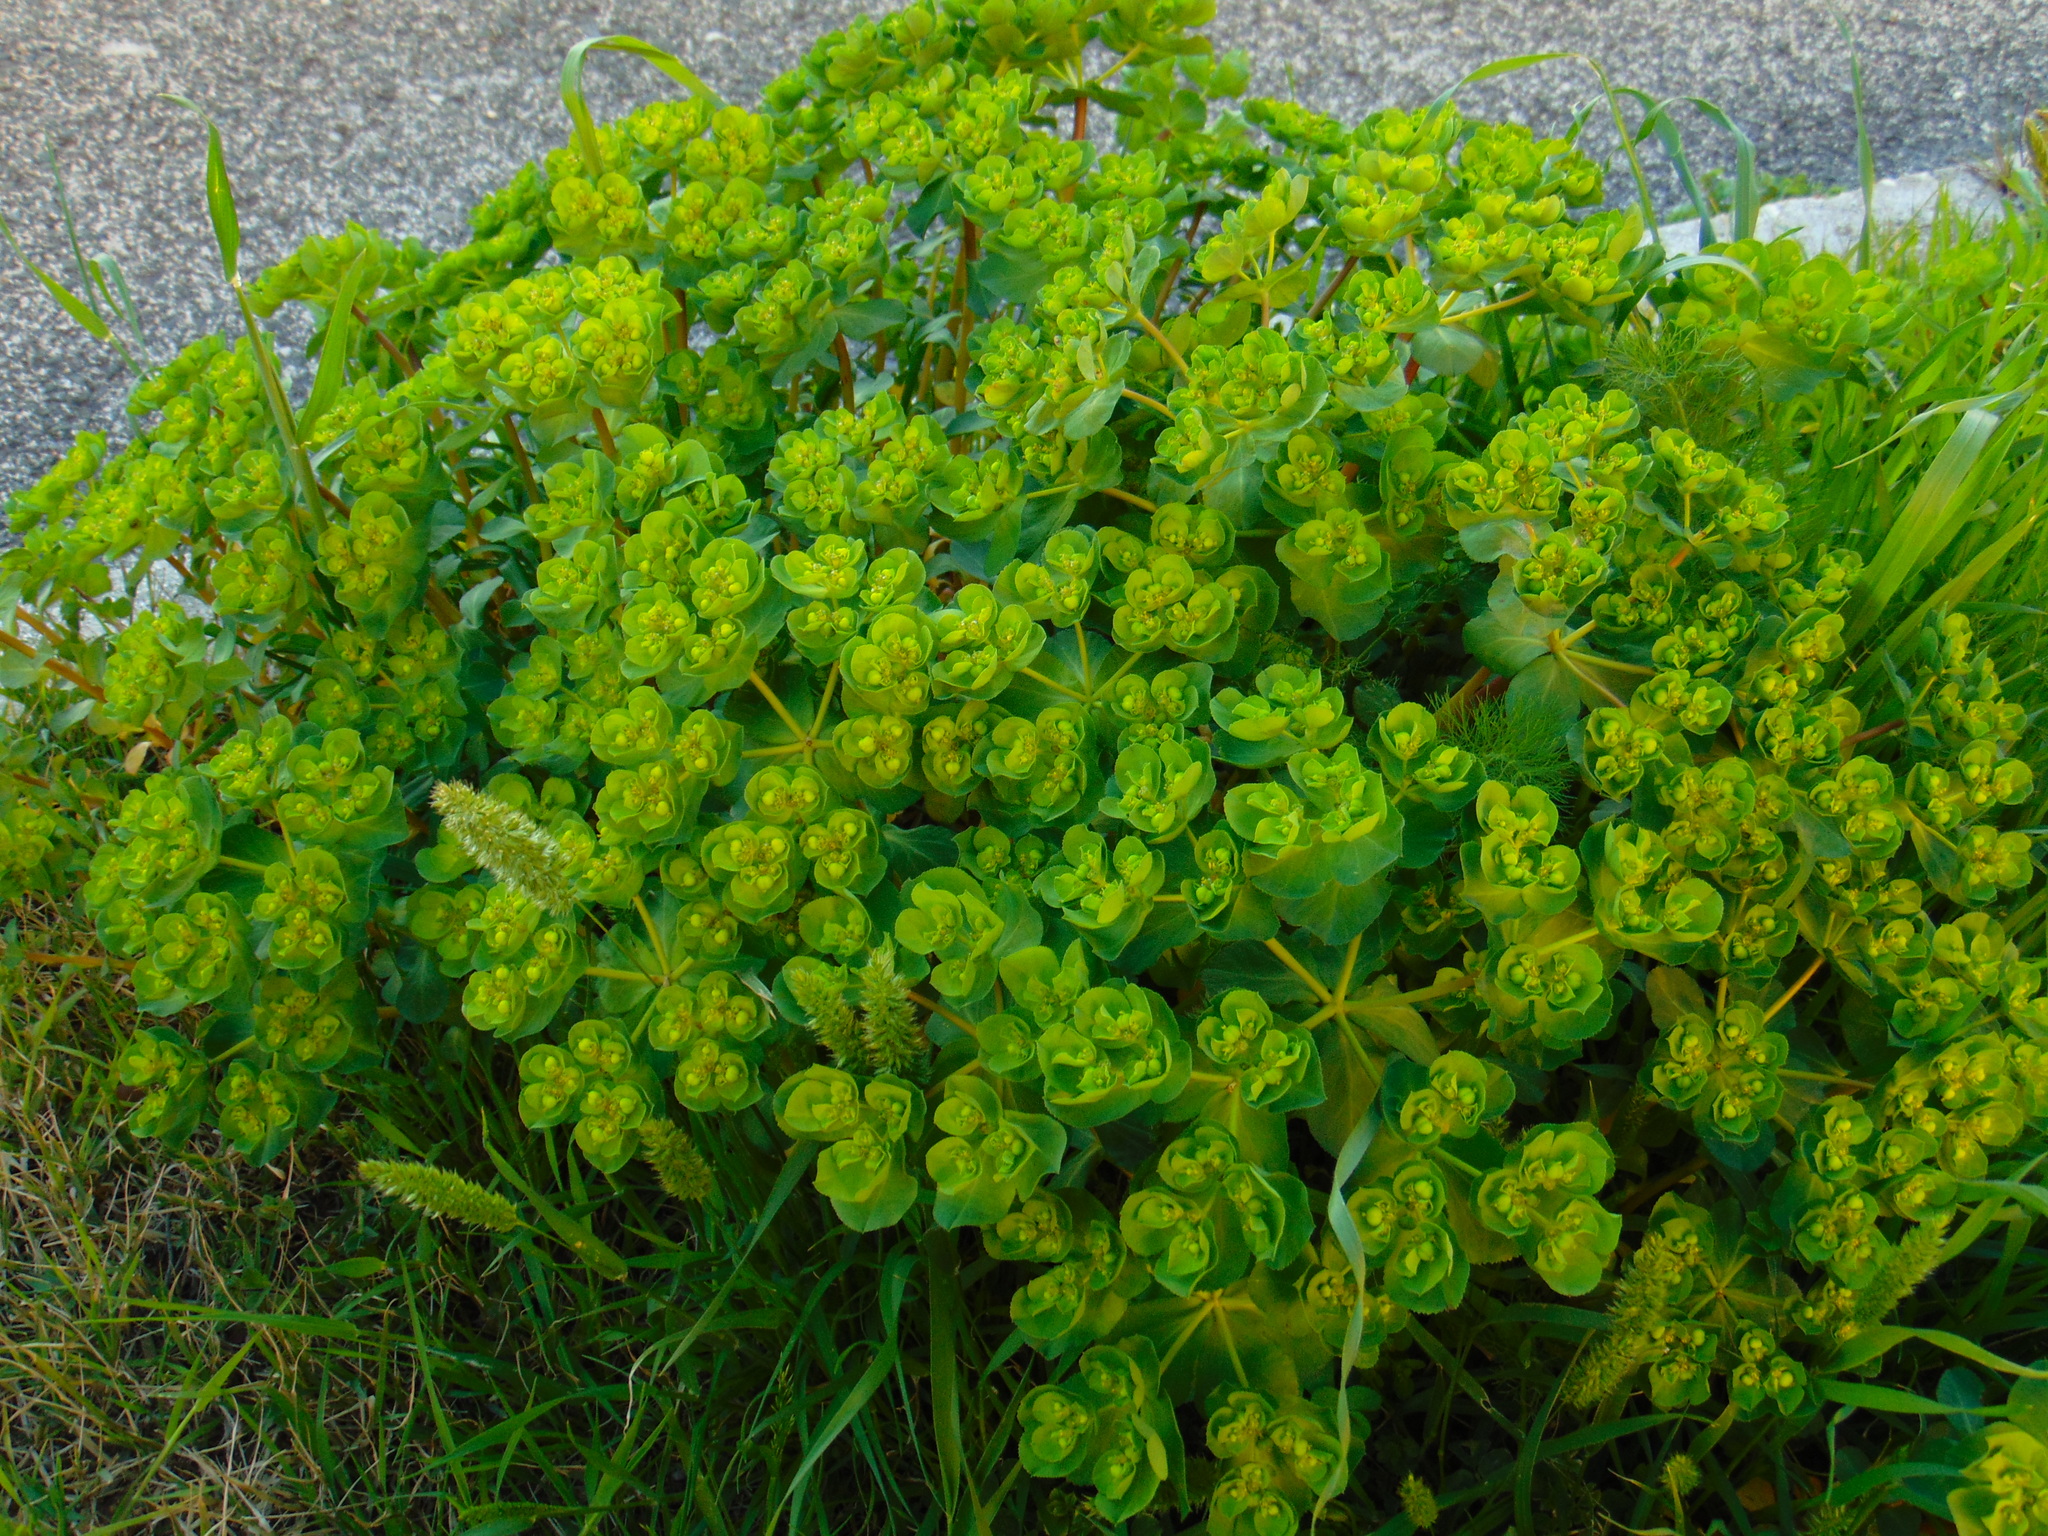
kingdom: Plantae
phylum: Tracheophyta
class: Magnoliopsida
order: Malpighiales
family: Euphorbiaceae
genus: Euphorbia
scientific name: Euphorbia helioscopia
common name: Sun spurge
